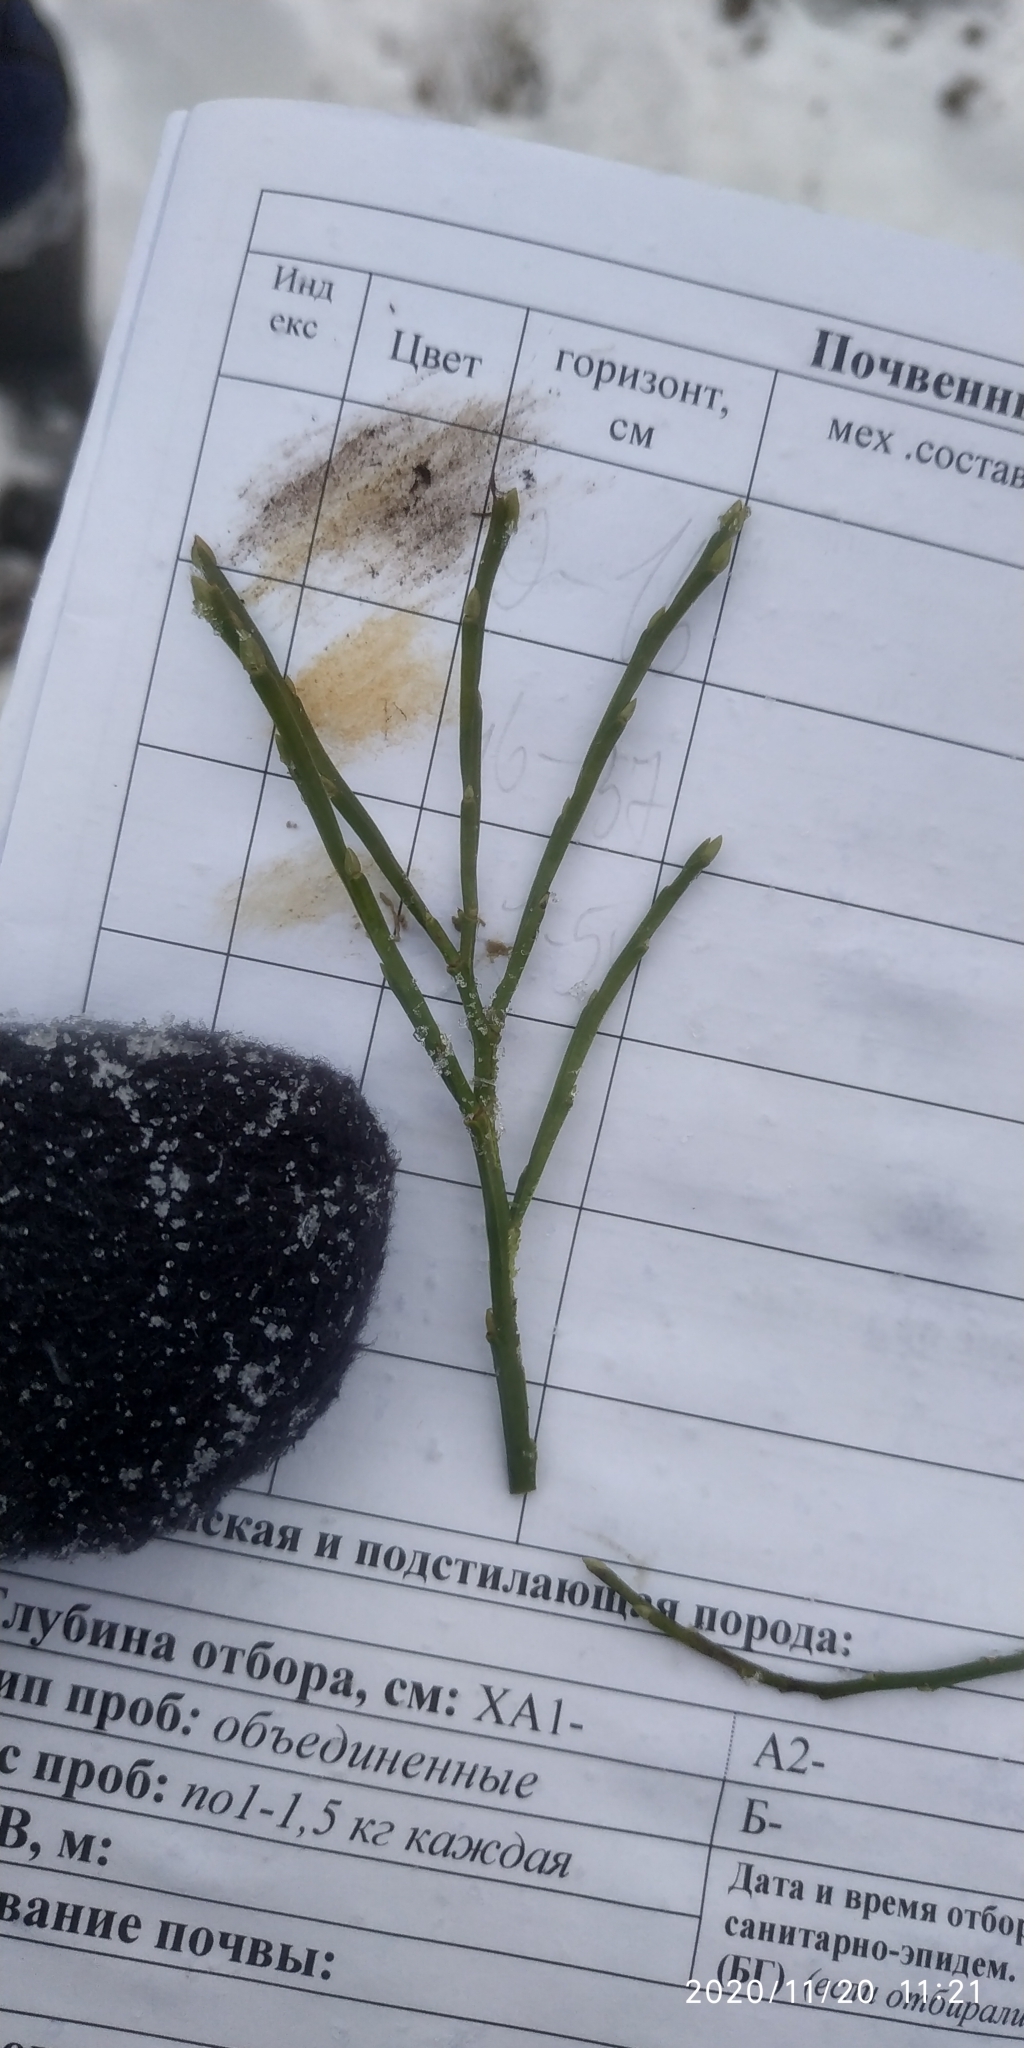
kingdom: Plantae
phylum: Tracheophyta
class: Magnoliopsida
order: Ericales
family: Ericaceae
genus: Vaccinium
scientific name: Vaccinium myrtillus
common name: Bilberry
